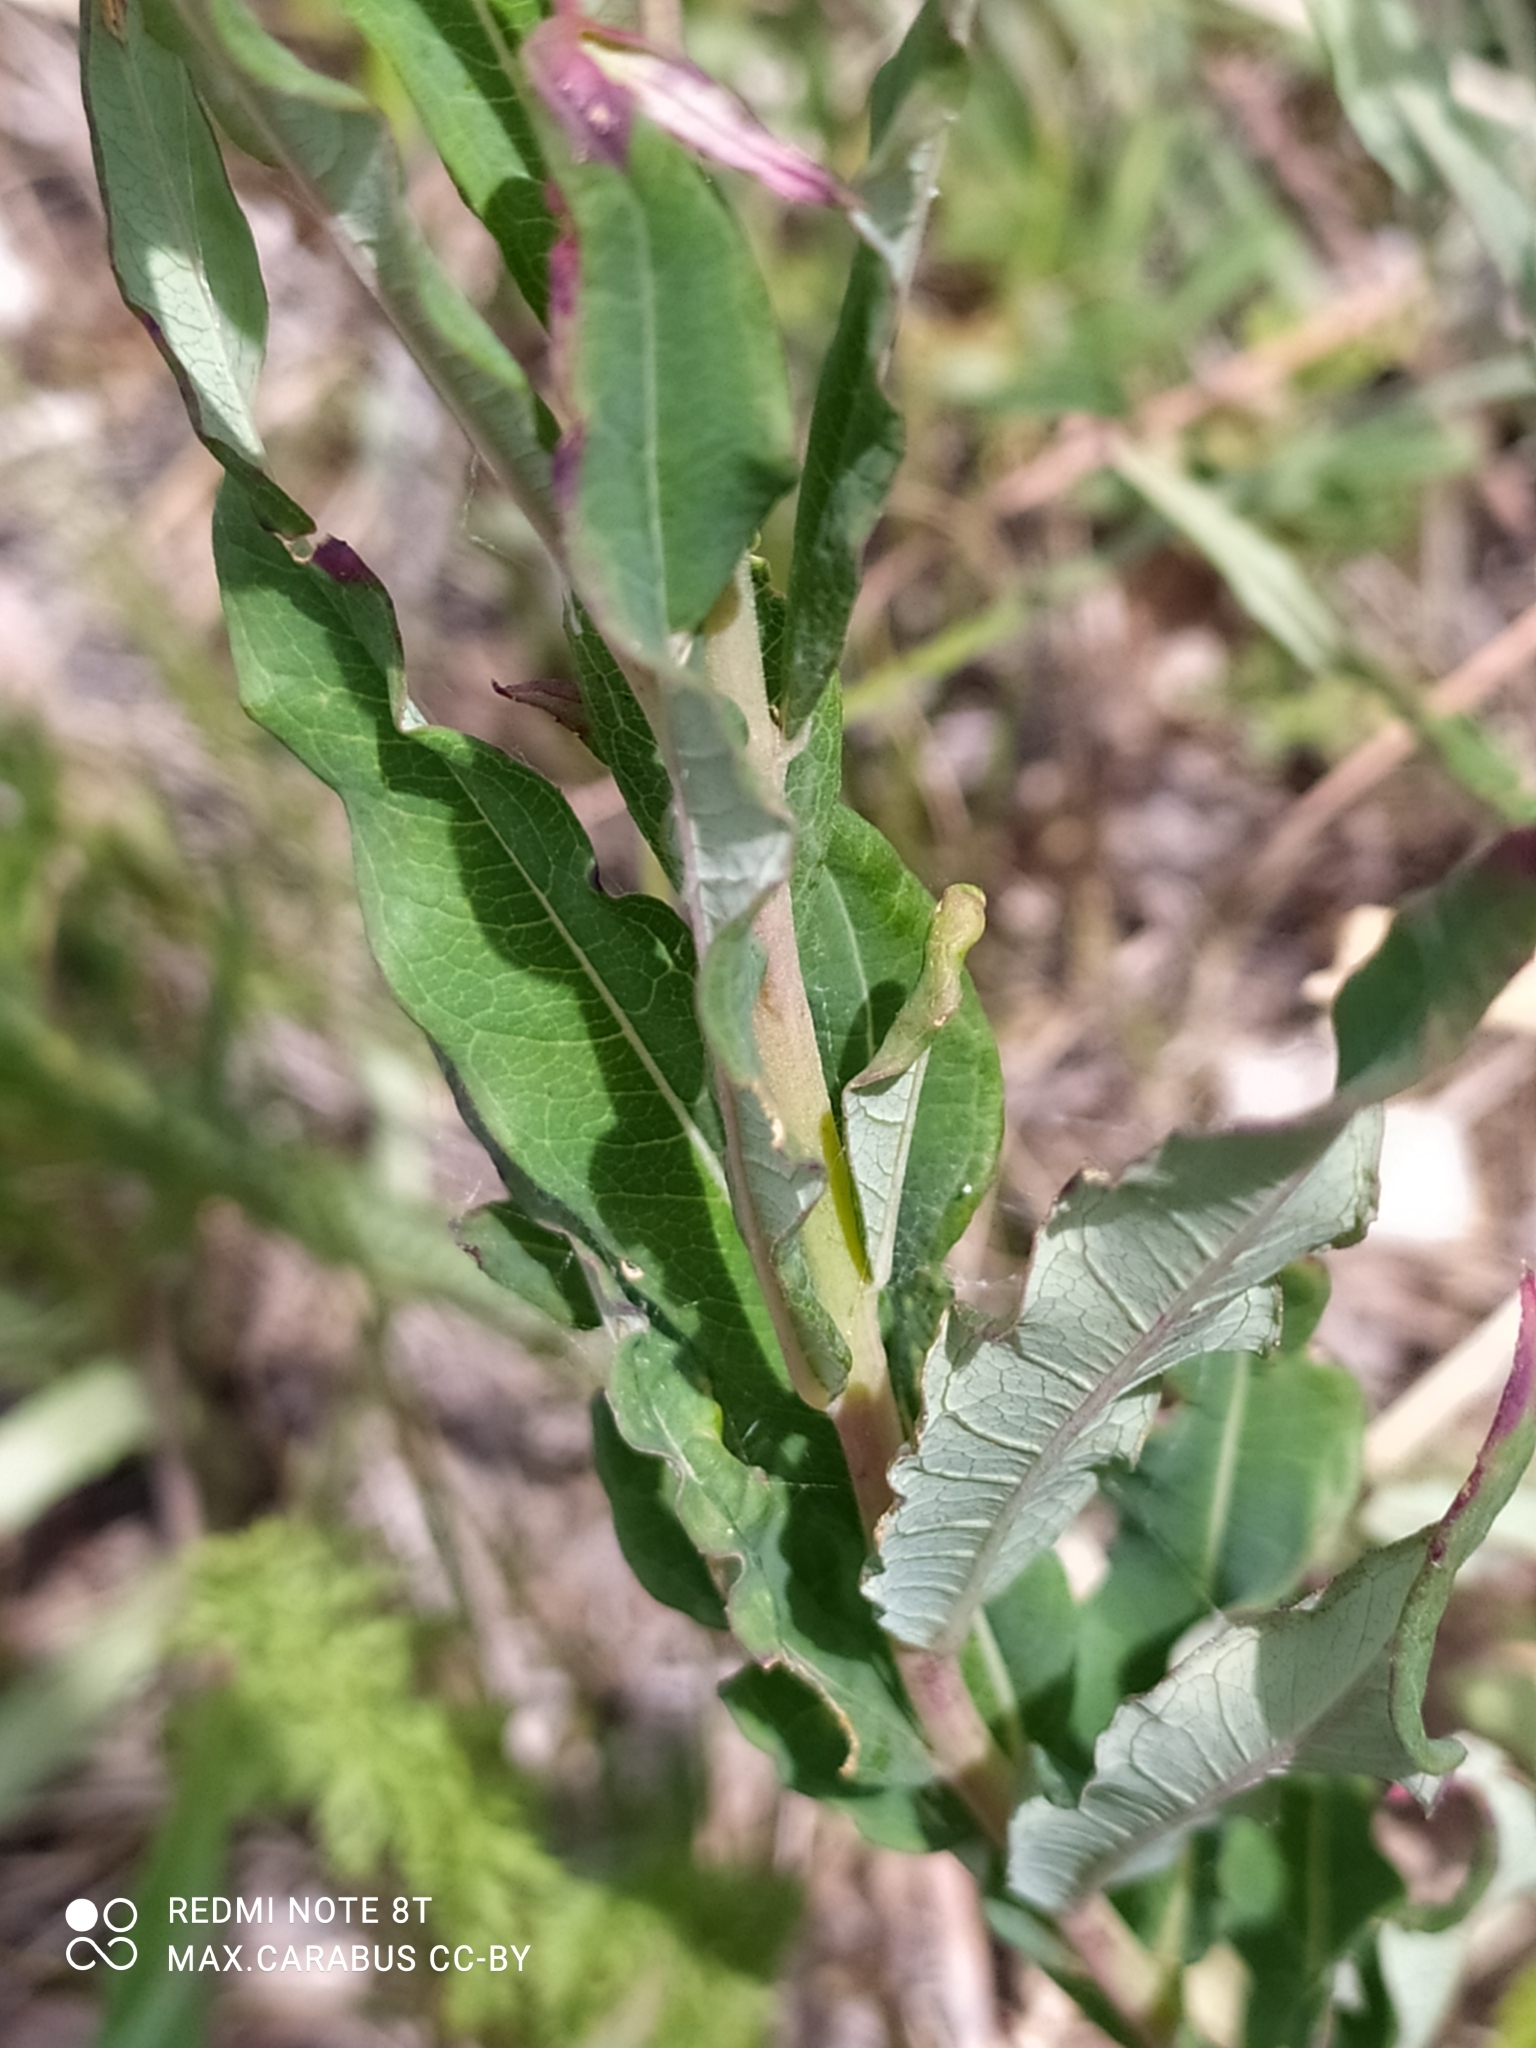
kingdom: Plantae
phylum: Tracheophyta
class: Magnoliopsida
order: Myrtales
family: Onagraceae
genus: Chamaenerion
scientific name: Chamaenerion angustifolium
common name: Fireweed
